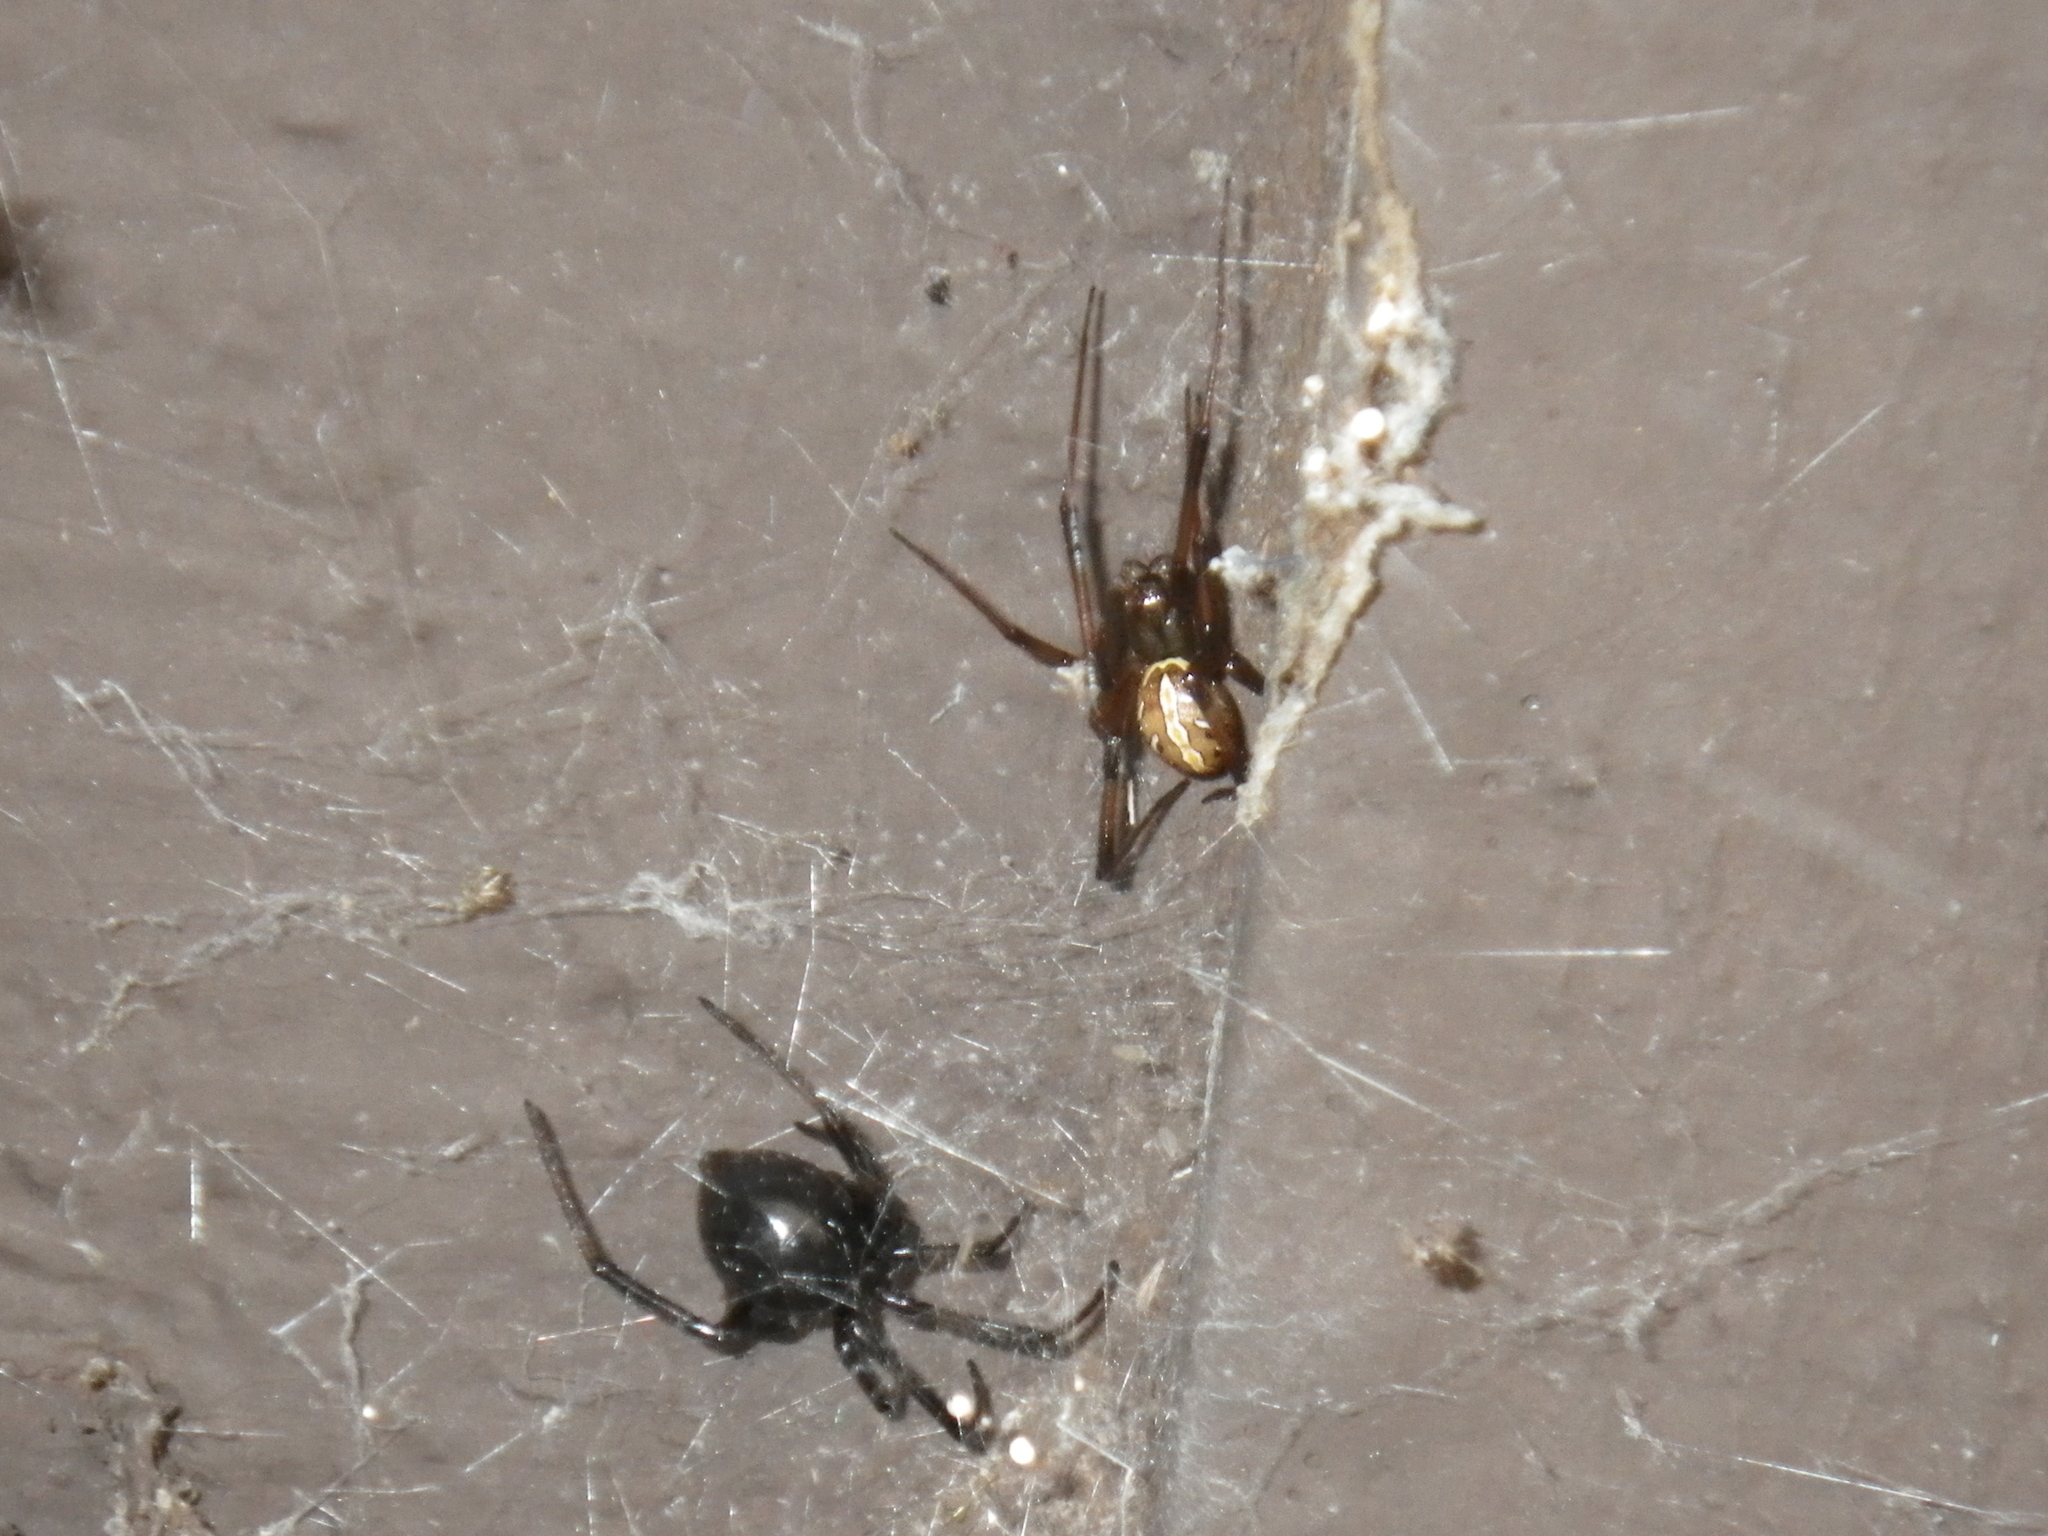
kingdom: Animalia
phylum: Arthropoda
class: Arachnida
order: Araneae
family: Theridiidae
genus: Latrodectus
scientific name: Latrodectus hesperus
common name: Western black widow
